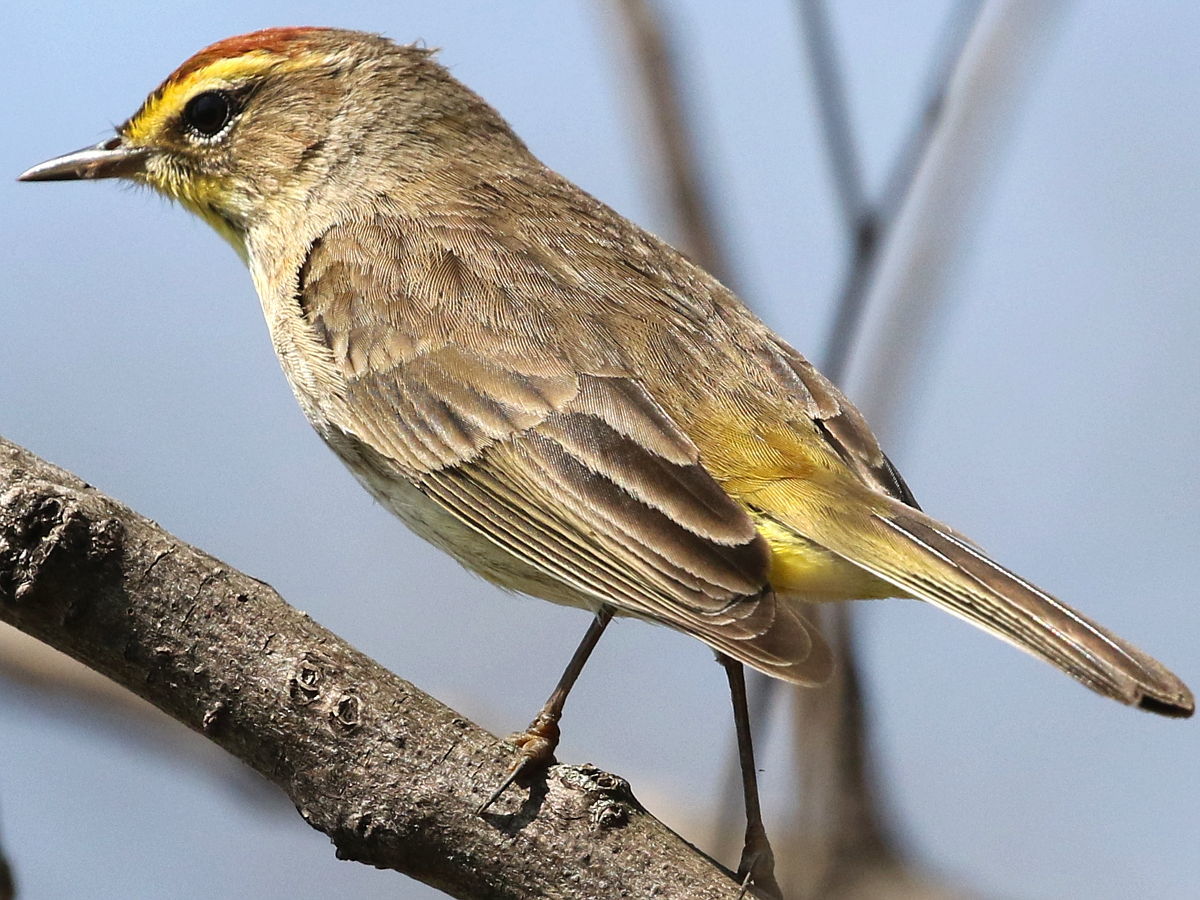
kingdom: Animalia
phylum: Chordata
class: Aves
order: Passeriformes
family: Parulidae
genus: Setophaga
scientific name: Setophaga palmarum
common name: Palm warbler
